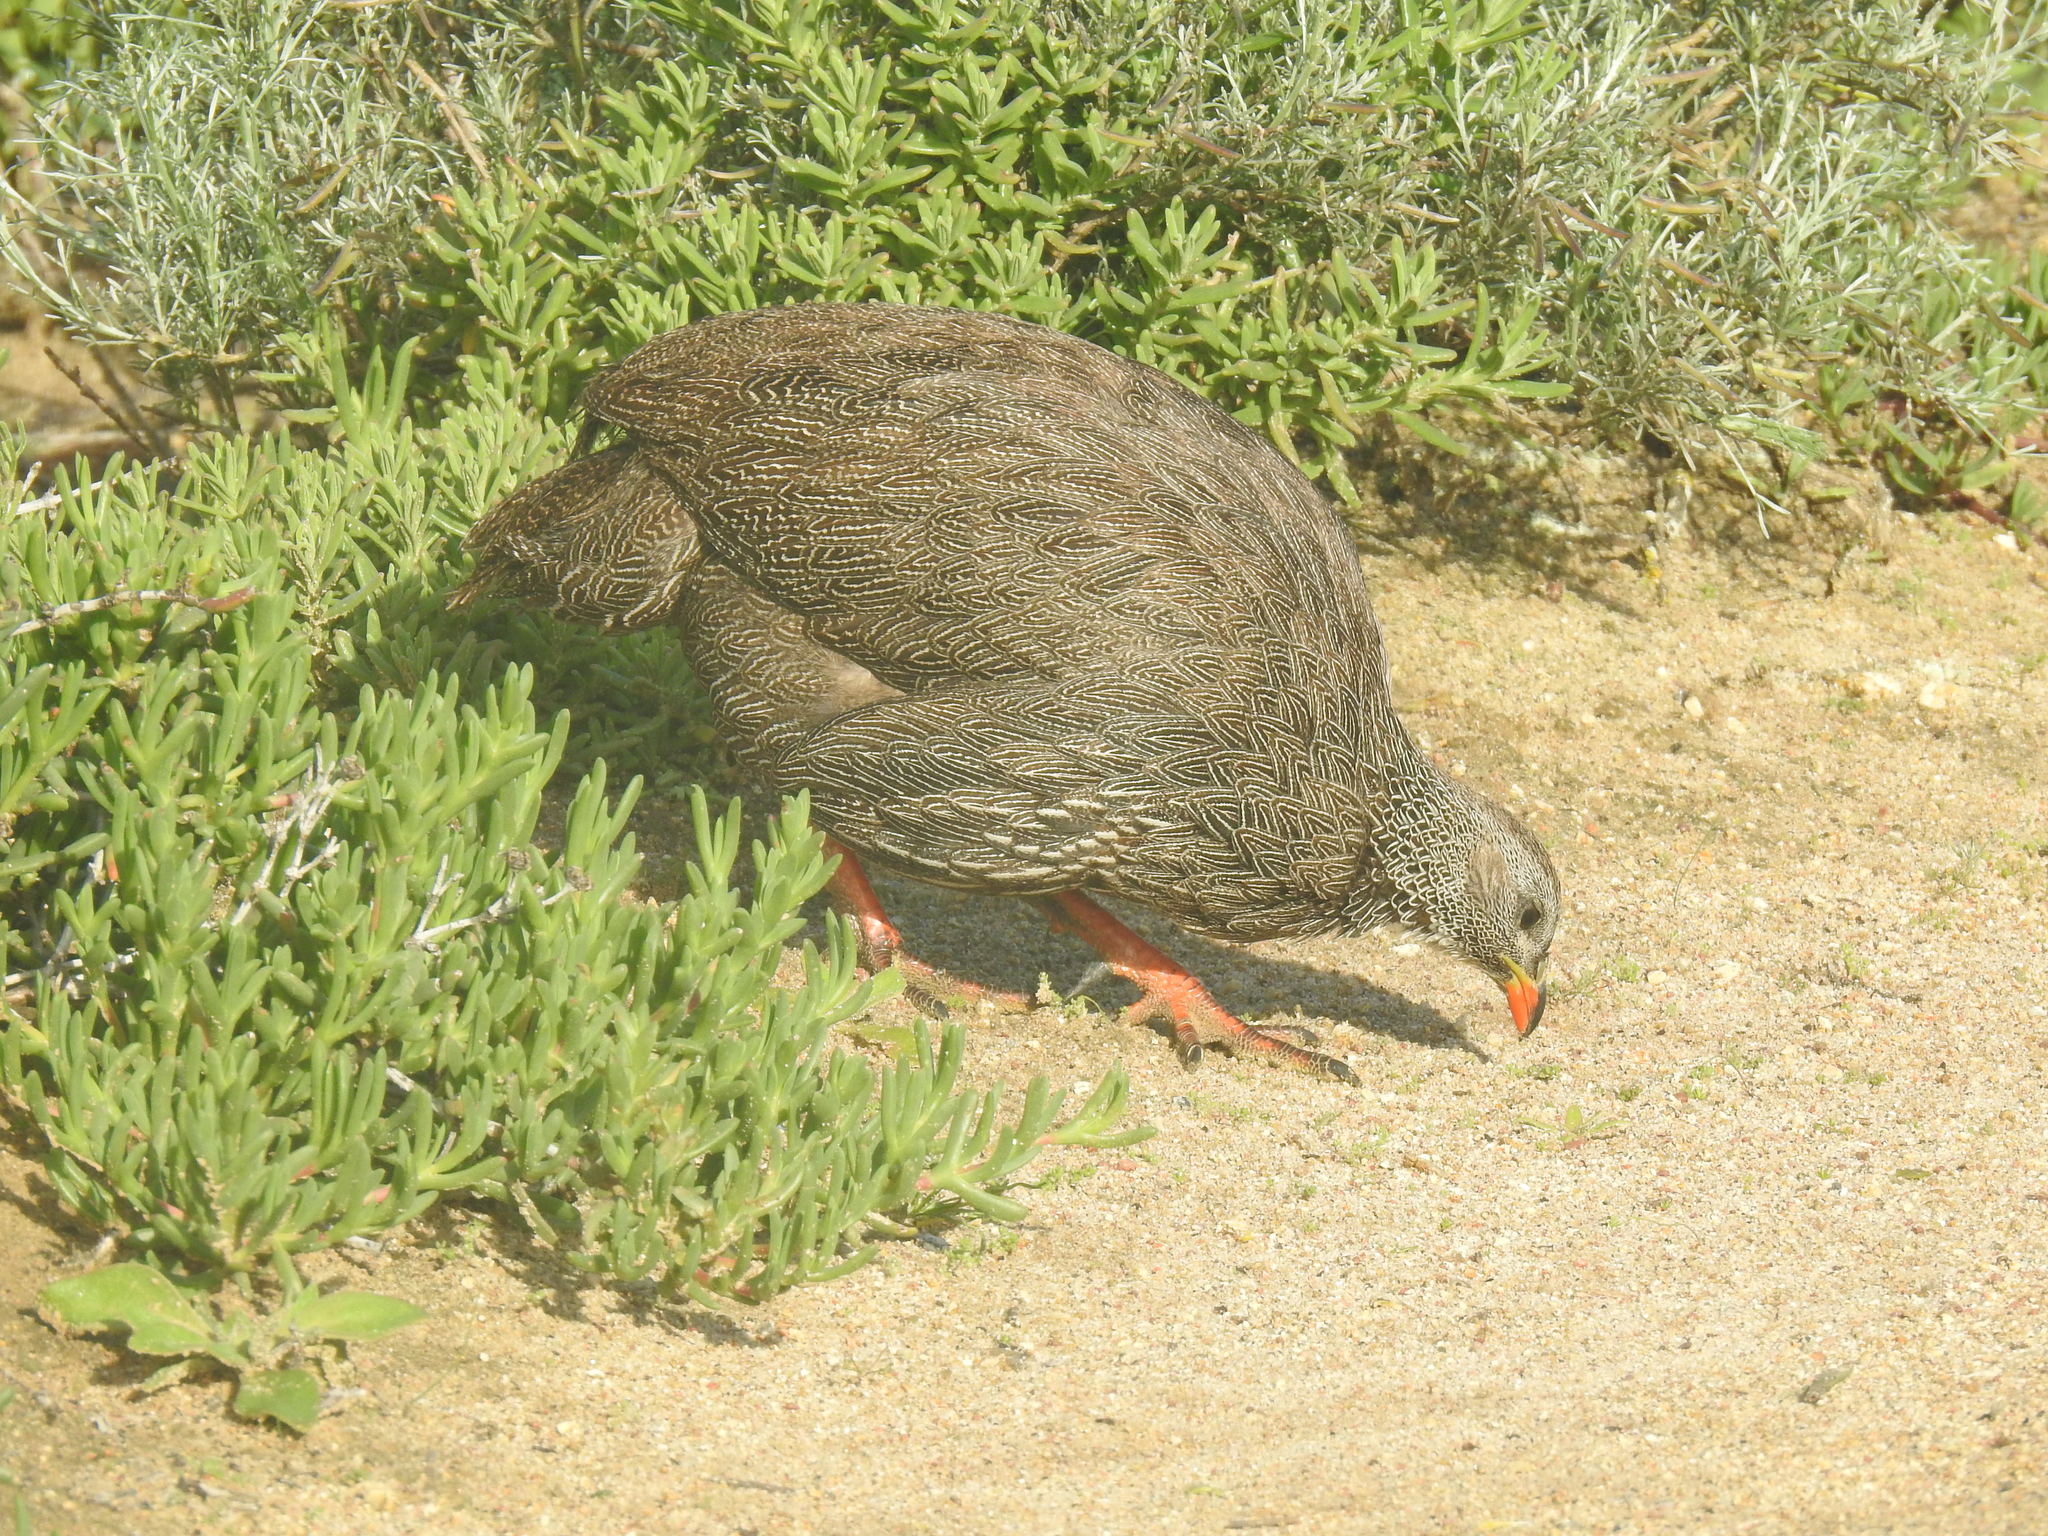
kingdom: Animalia
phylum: Chordata
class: Aves
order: Galliformes
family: Phasianidae
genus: Pternistis
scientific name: Pternistis capensis
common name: Cape spurfowl
